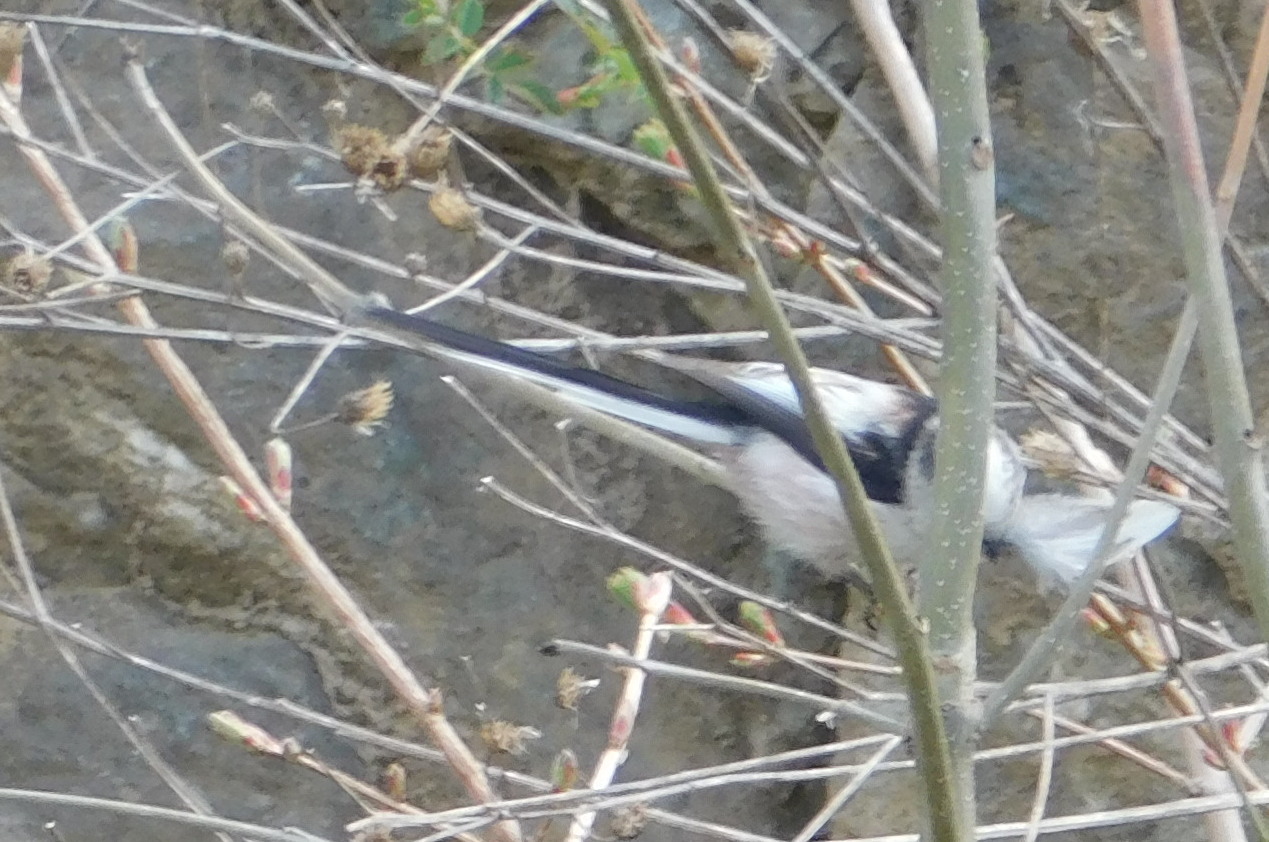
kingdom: Animalia
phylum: Chordata
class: Aves
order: Passeriformes
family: Aegithalidae
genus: Aegithalos
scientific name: Aegithalos caudatus
